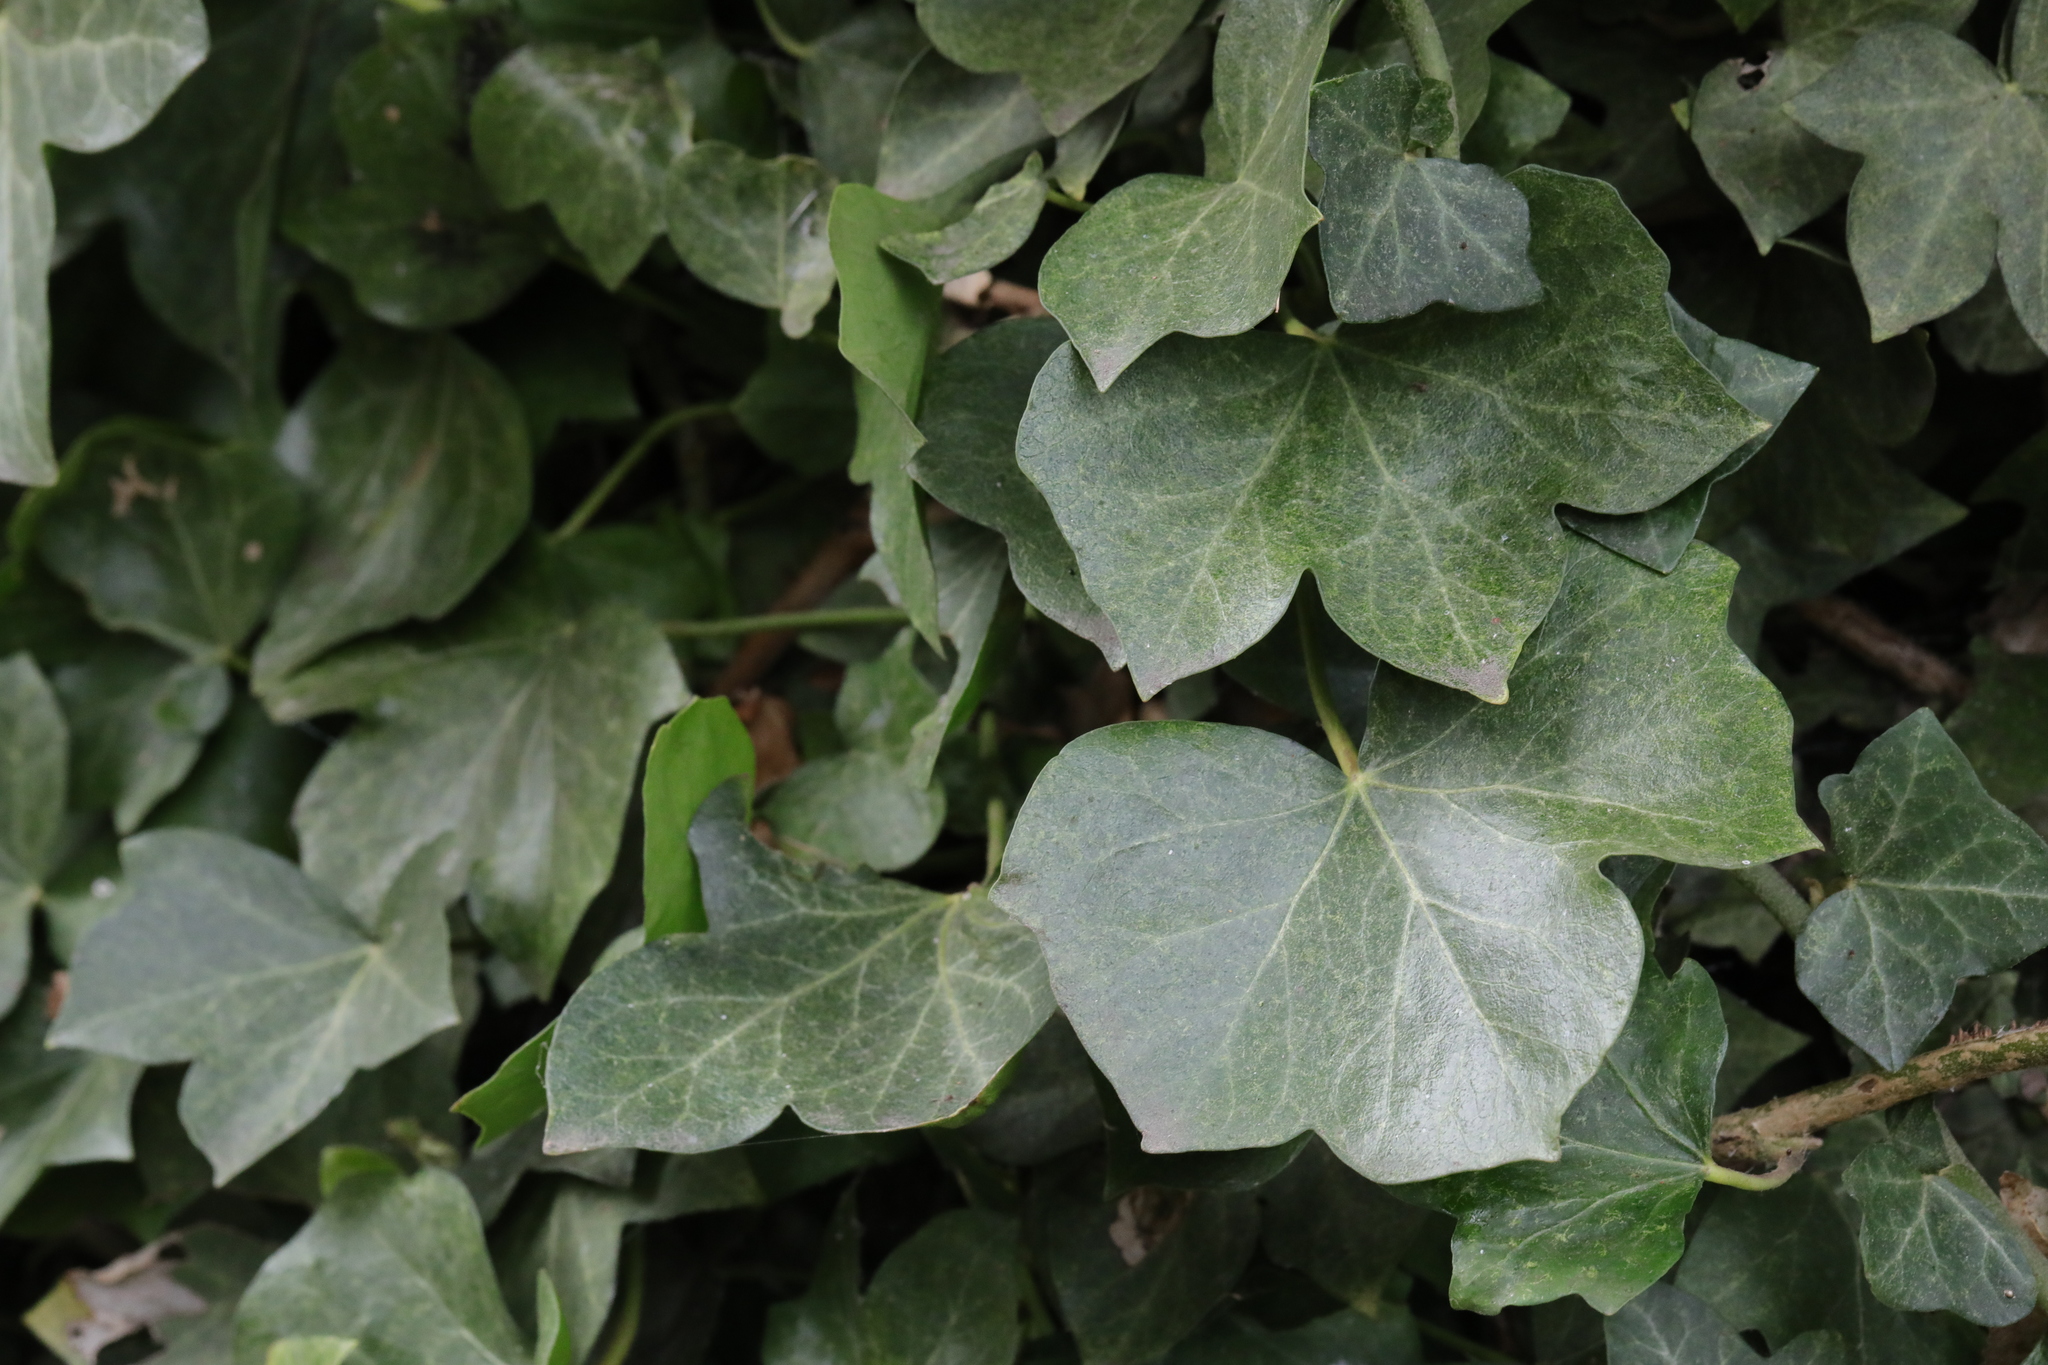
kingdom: Plantae
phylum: Tracheophyta
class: Magnoliopsida
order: Apiales
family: Araliaceae
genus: Hedera
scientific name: Hedera helix
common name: Ivy
